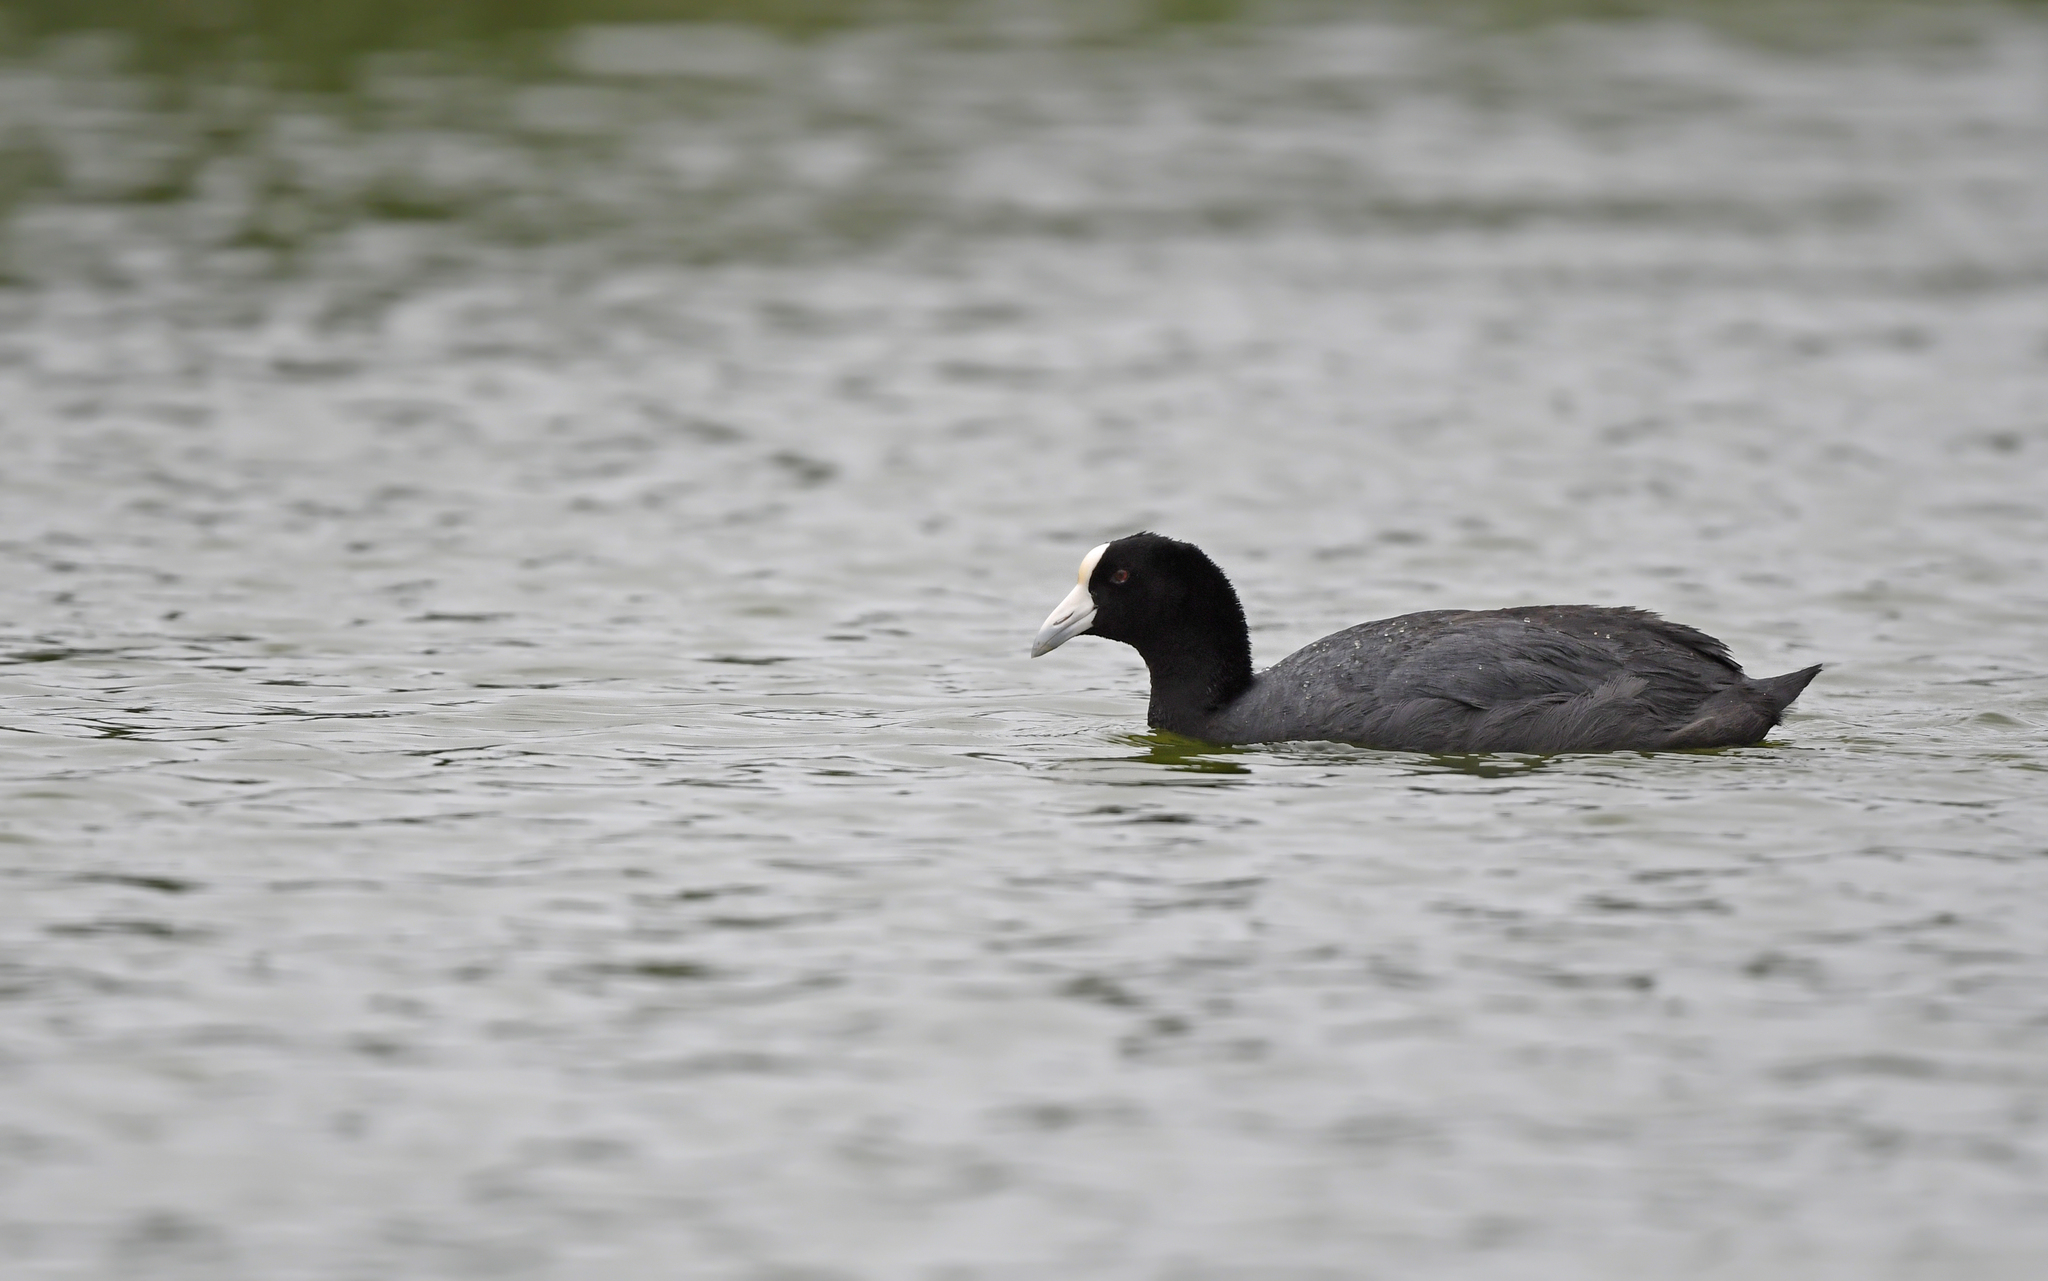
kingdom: Animalia
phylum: Chordata
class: Aves
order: Gruiformes
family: Rallidae
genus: Fulica
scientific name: Fulica ardesiaca
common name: Andean coot
